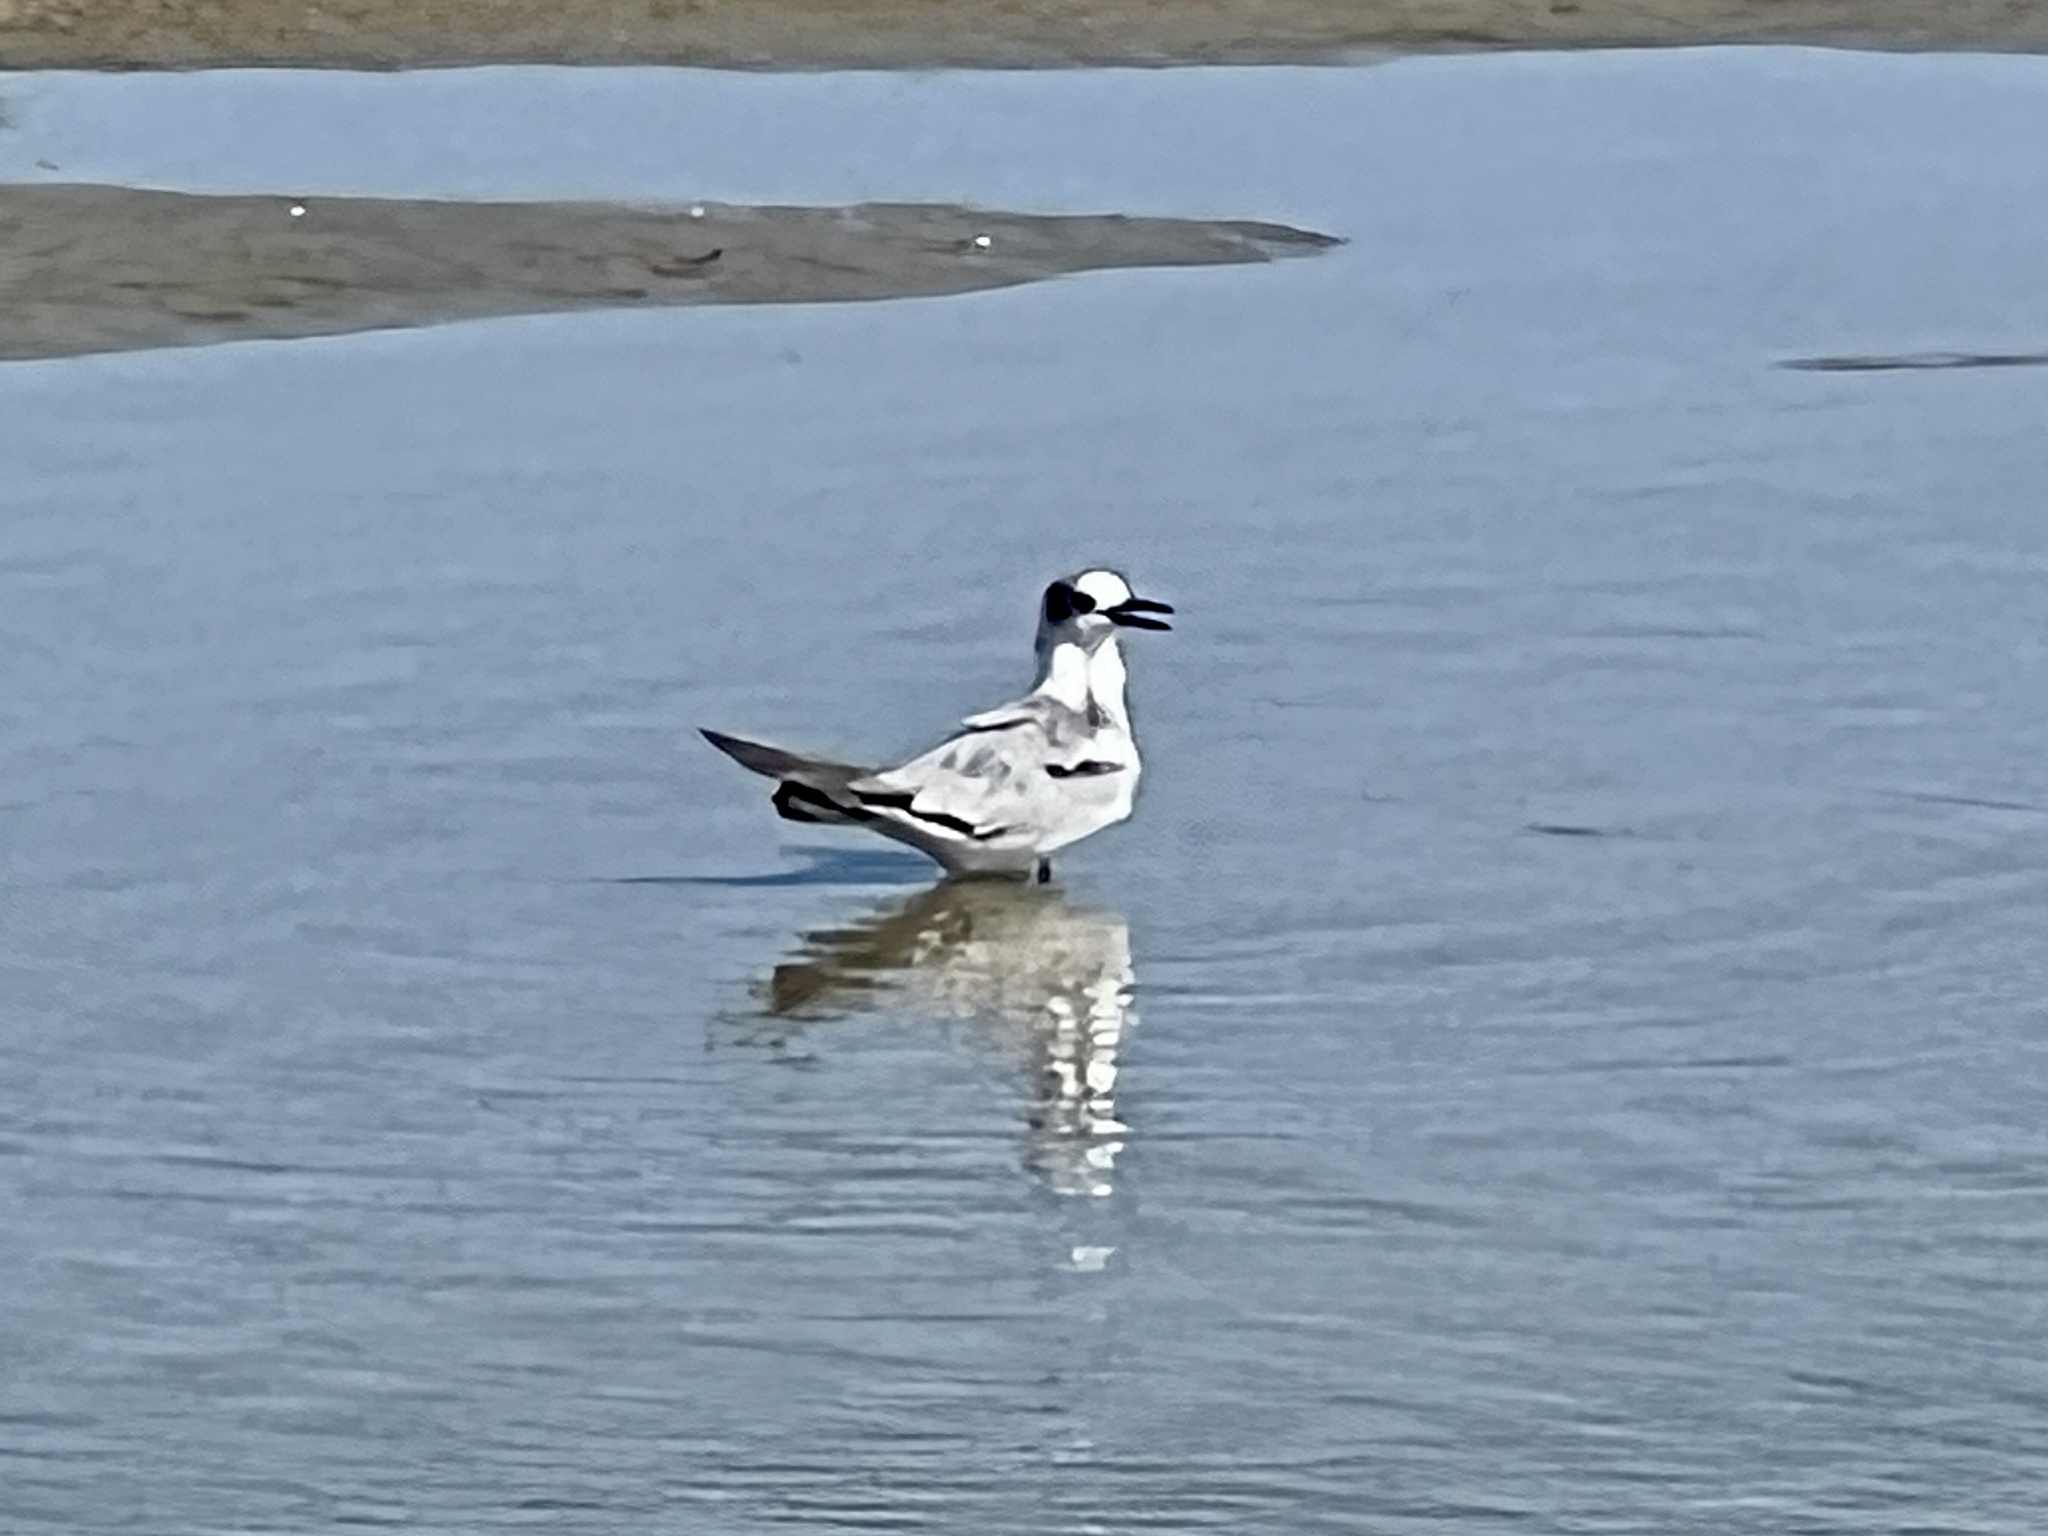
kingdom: Animalia
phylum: Chordata
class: Aves
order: Charadriiformes
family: Laridae
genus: Chlidonias
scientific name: Chlidonias niger
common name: Black tern
